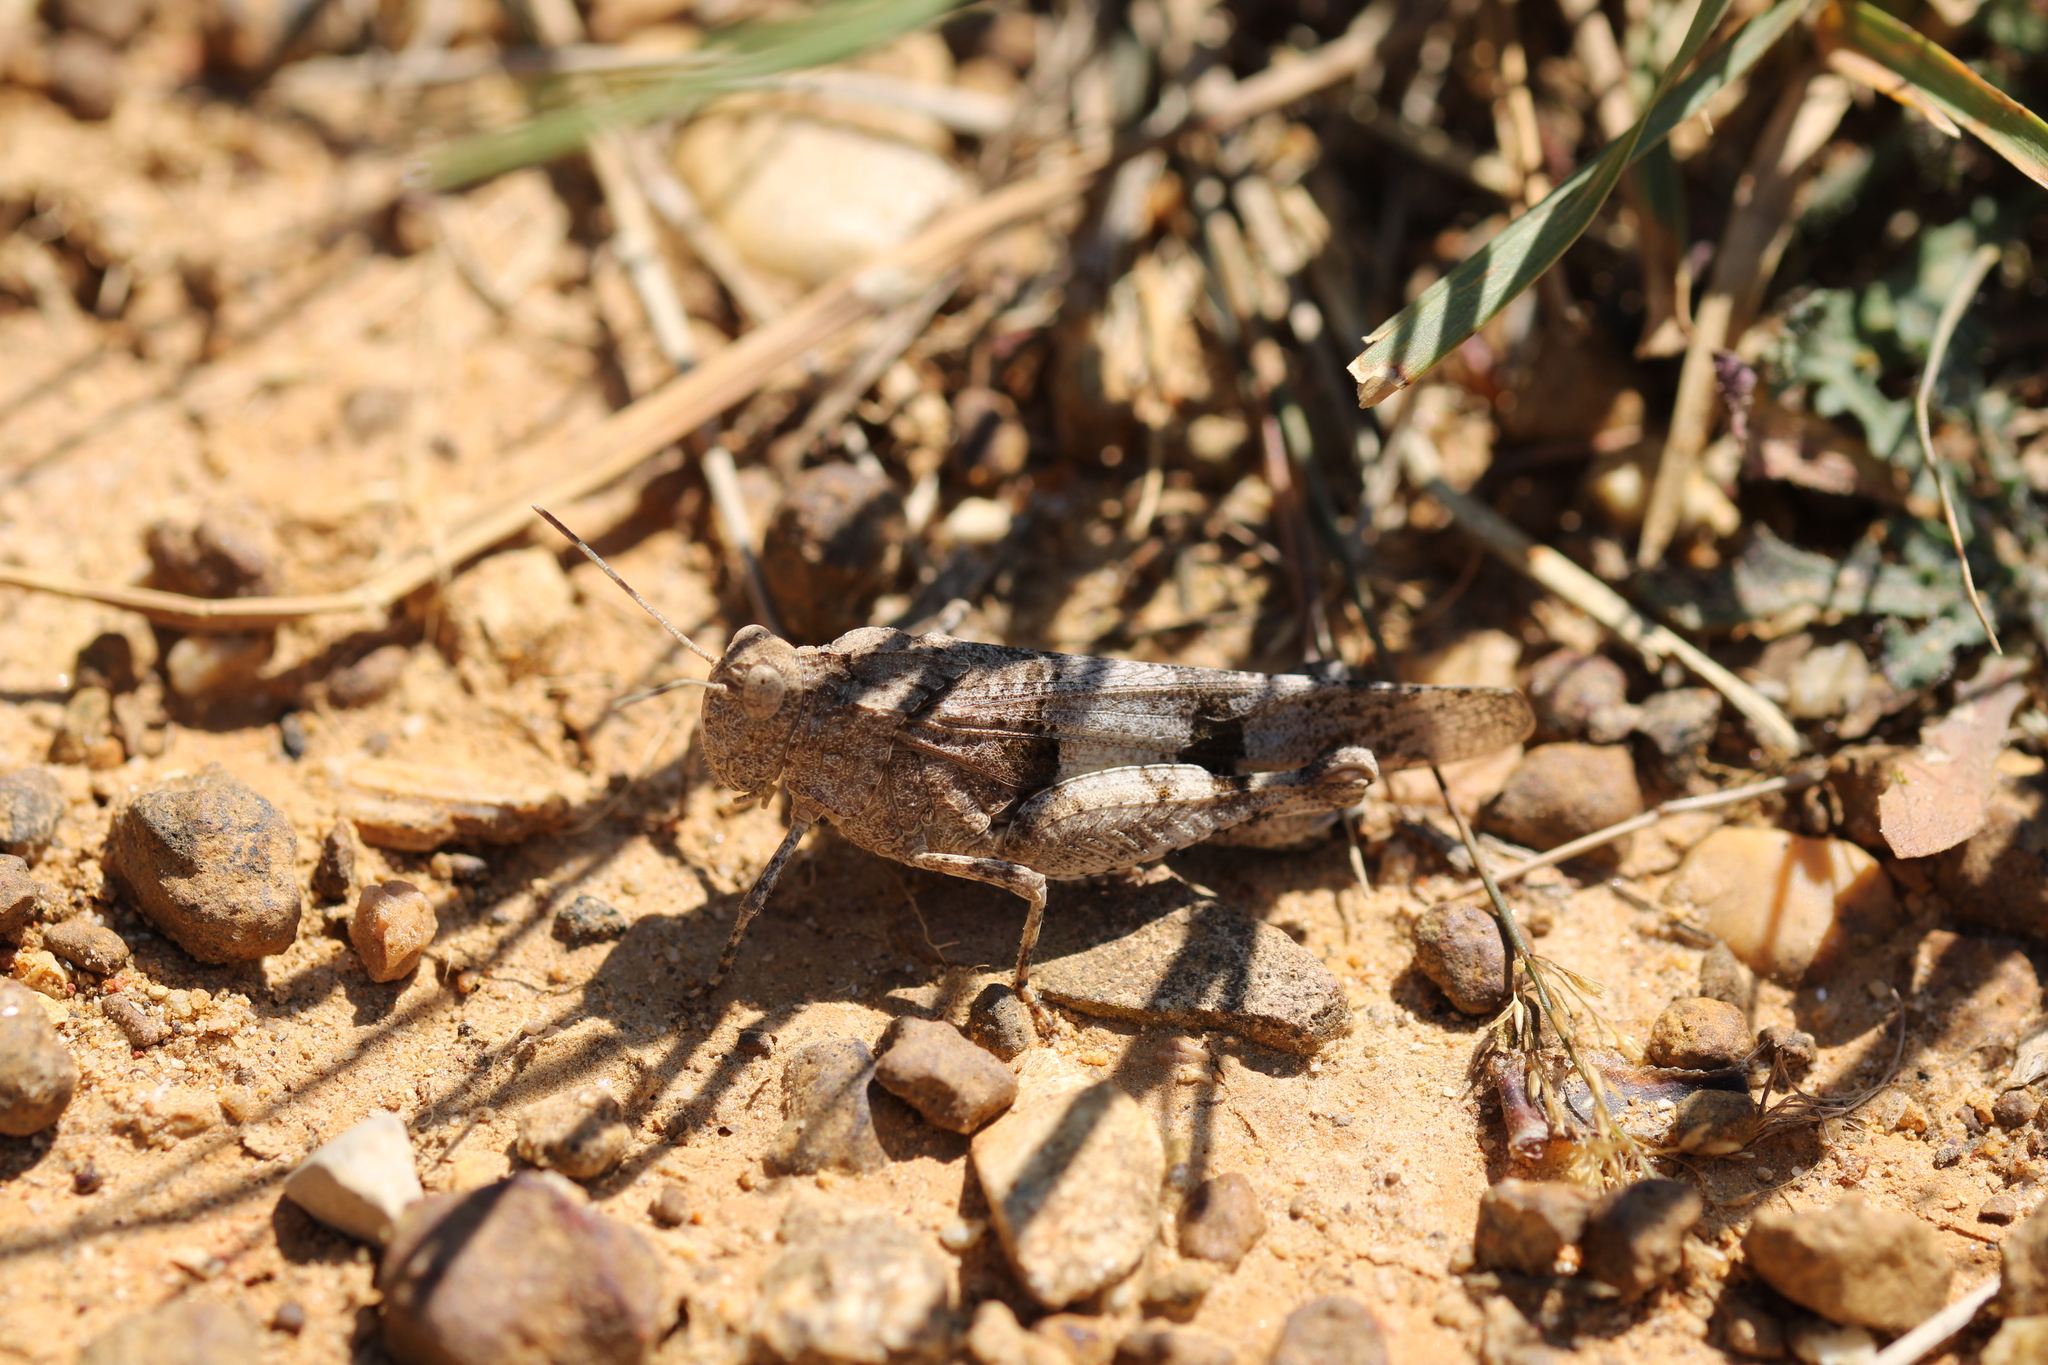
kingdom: Animalia
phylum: Arthropoda
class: Insecta
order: Orthoptera
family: Acrididae
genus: Oedipoda
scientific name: Oedipoda caerulescens
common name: Blue-winged grasshopper
